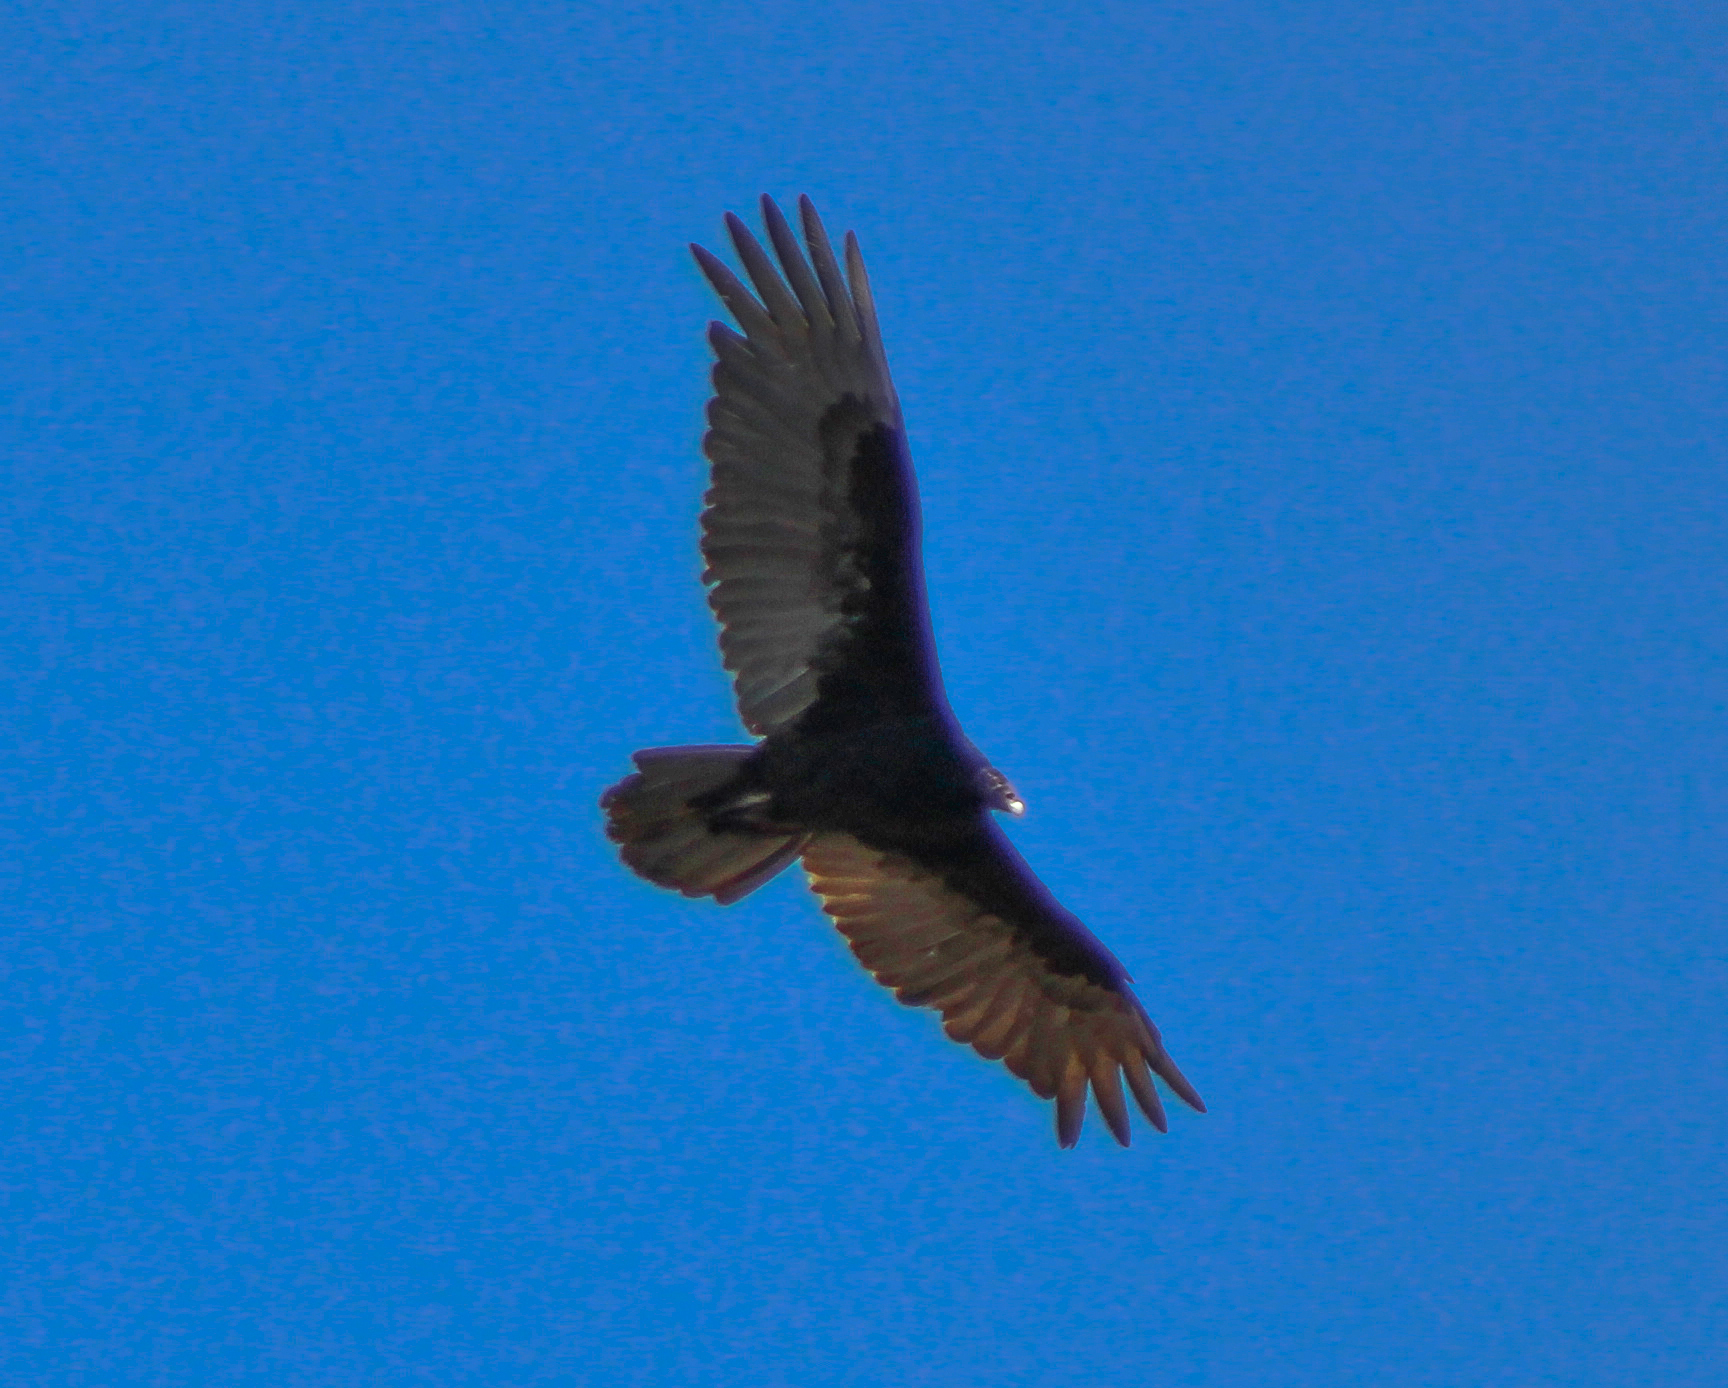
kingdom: Animalia
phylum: Chordata
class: Aves
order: Accipitriformes
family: Cathartidae
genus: Cathartes
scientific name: Cathartes aura
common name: Turkey vulture
